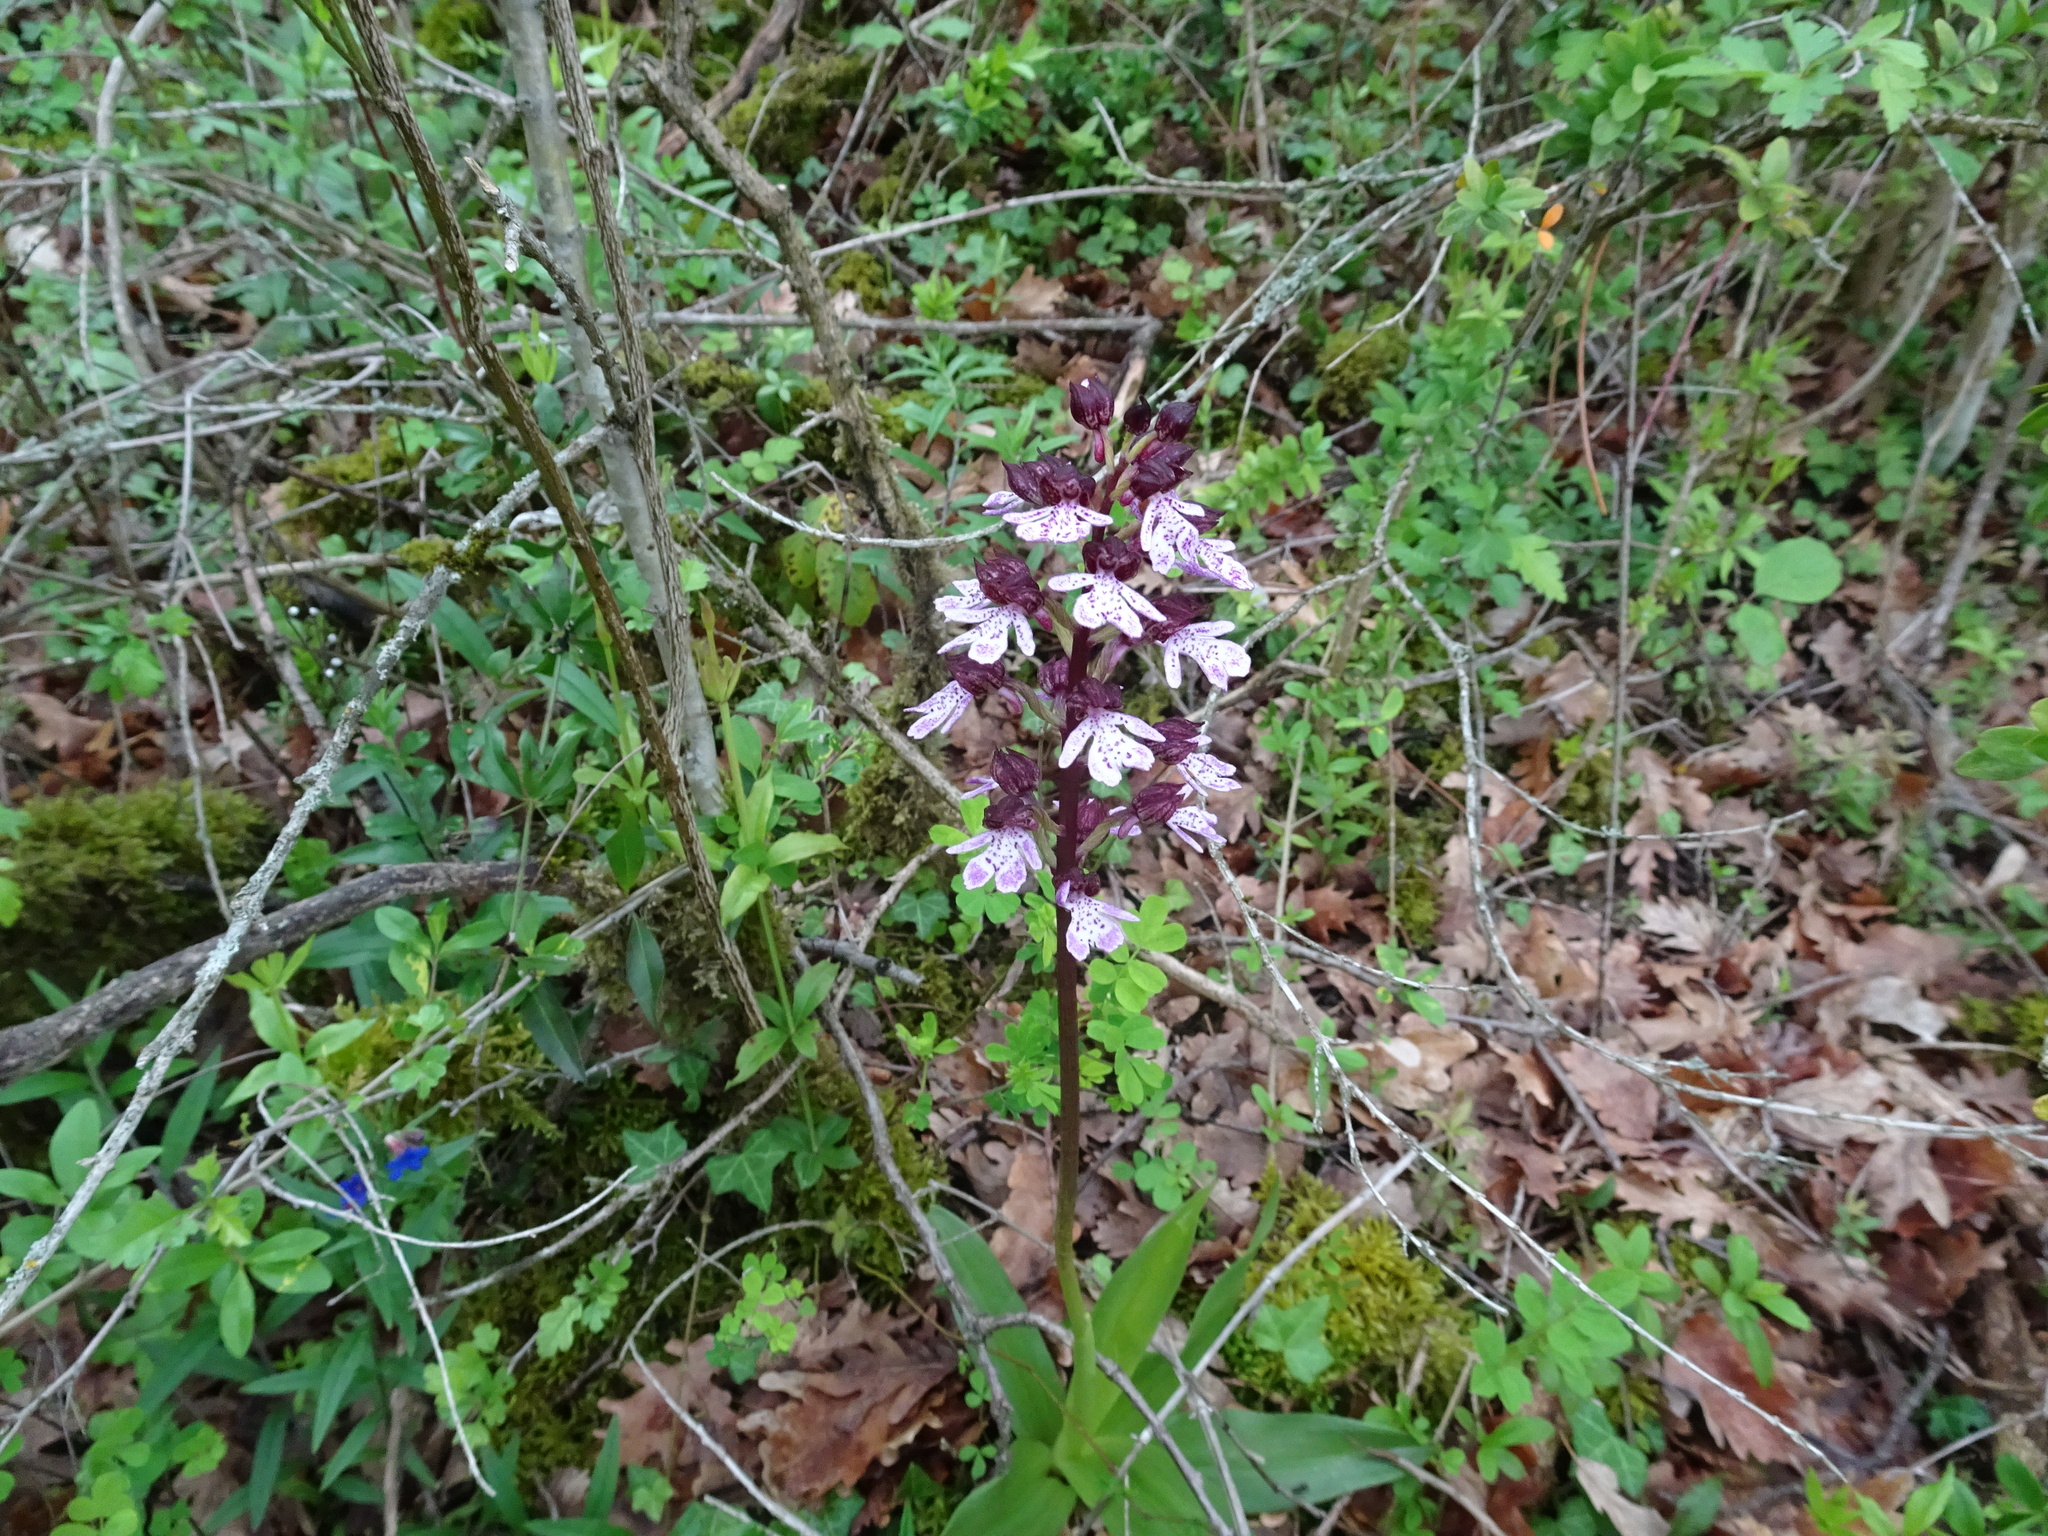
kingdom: Plantae
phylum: Tracheophyta
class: Liliopsida
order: Asparagales
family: Orchidaceae
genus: Orchis
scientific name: Orchis purpurea
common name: Lady orchid
